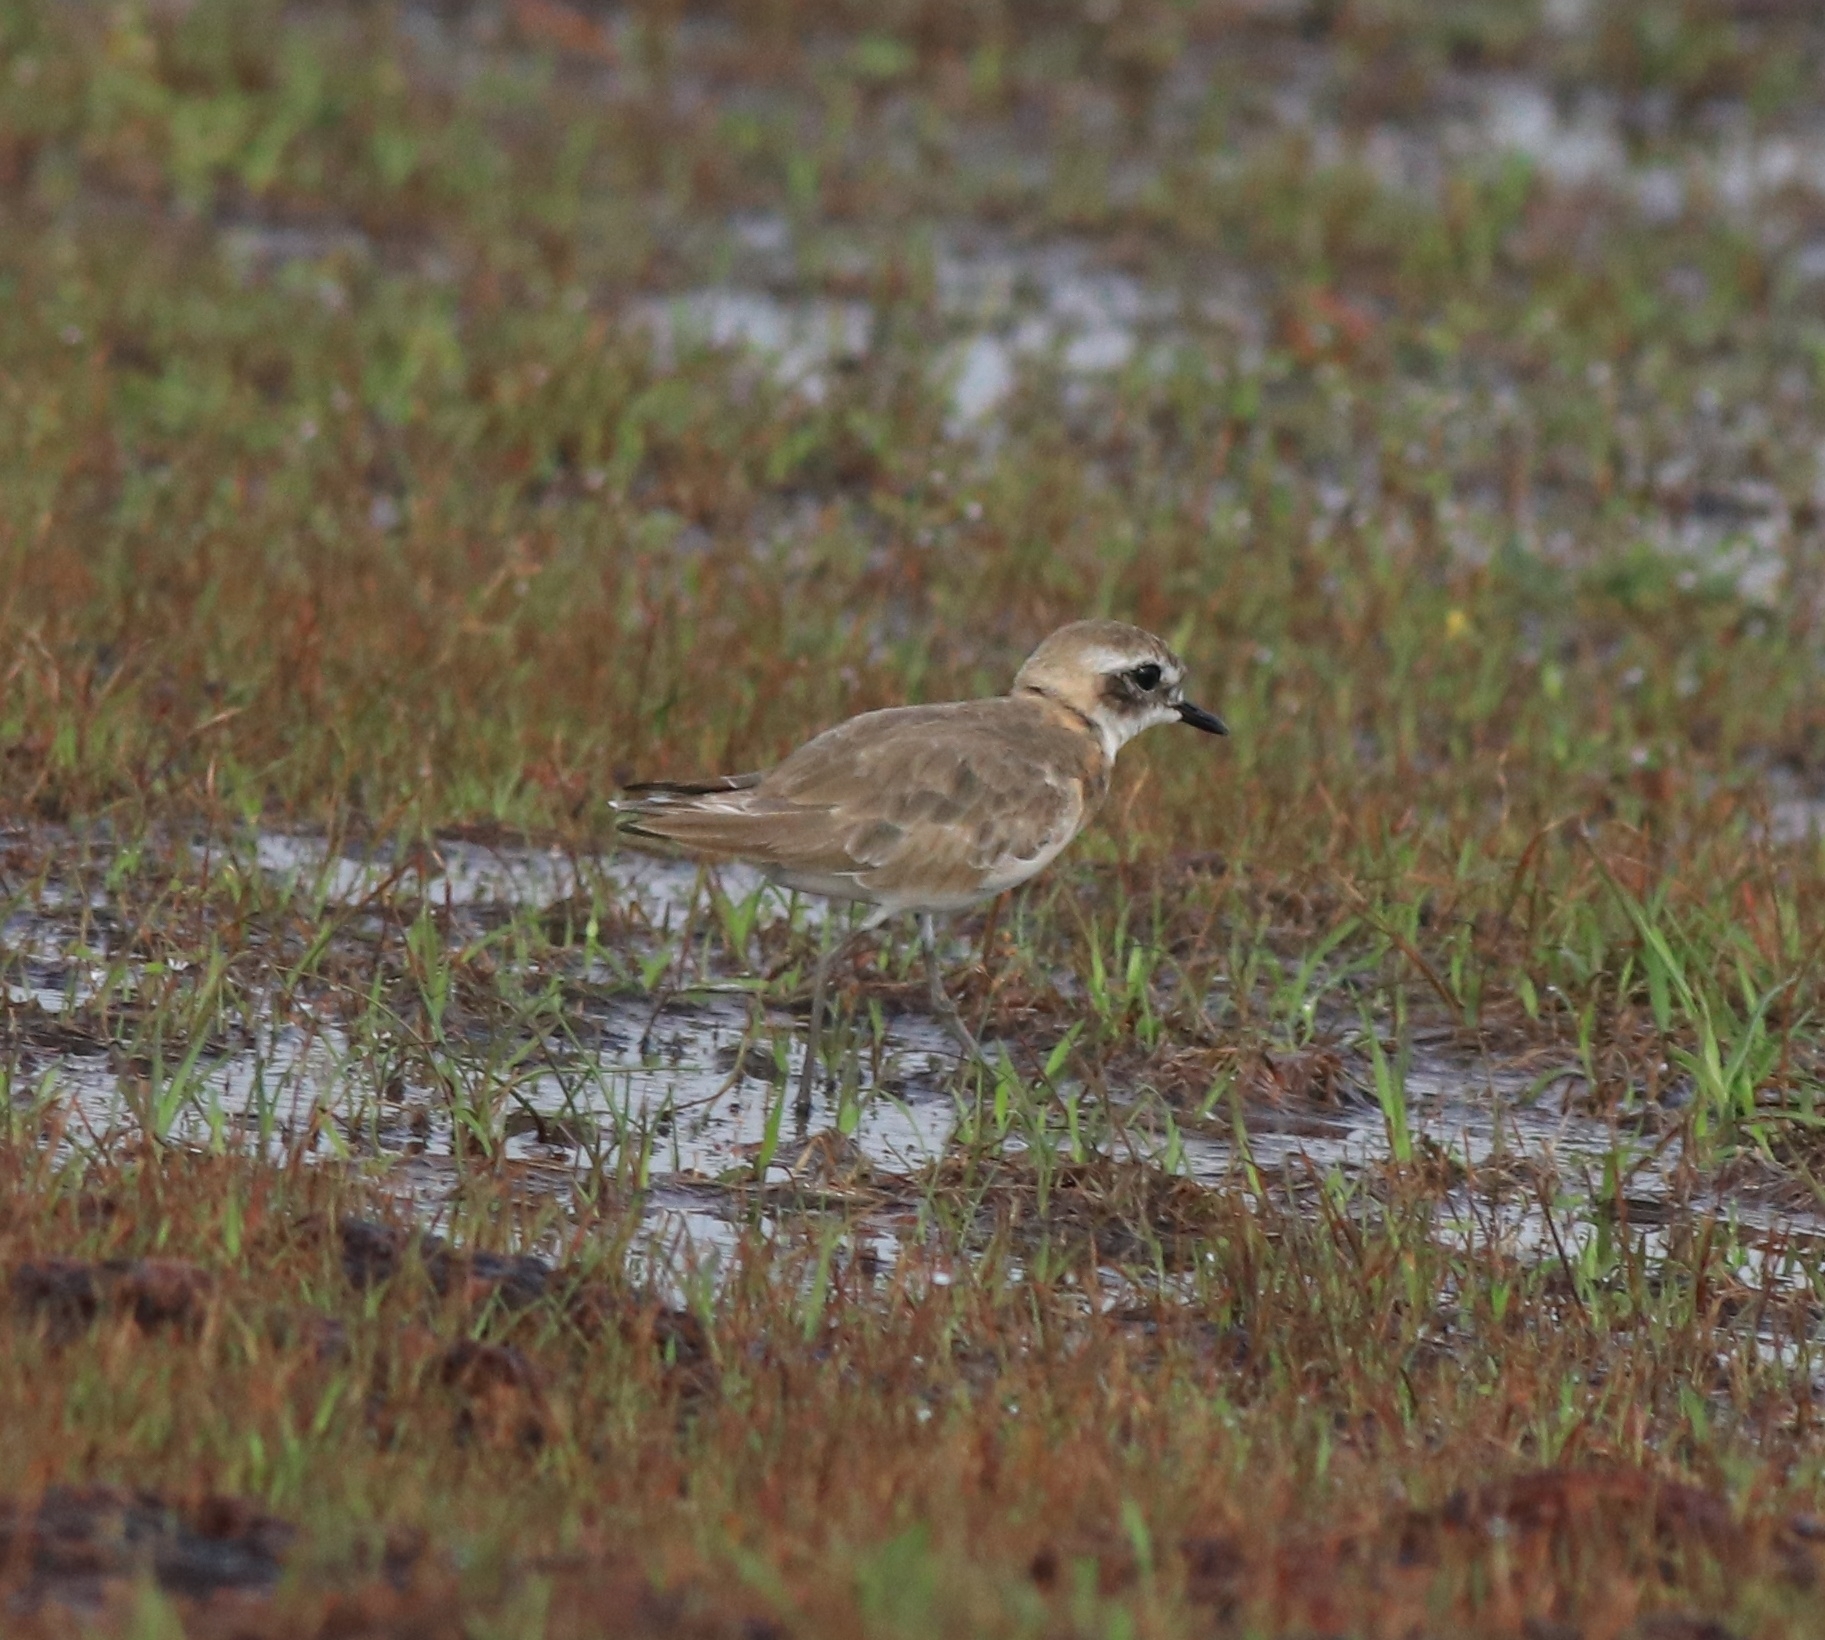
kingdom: Animalia
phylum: Chordata
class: Aves
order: Charadriiformes
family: Charadriidae
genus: Anarhynchus
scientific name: Anarhynchus
